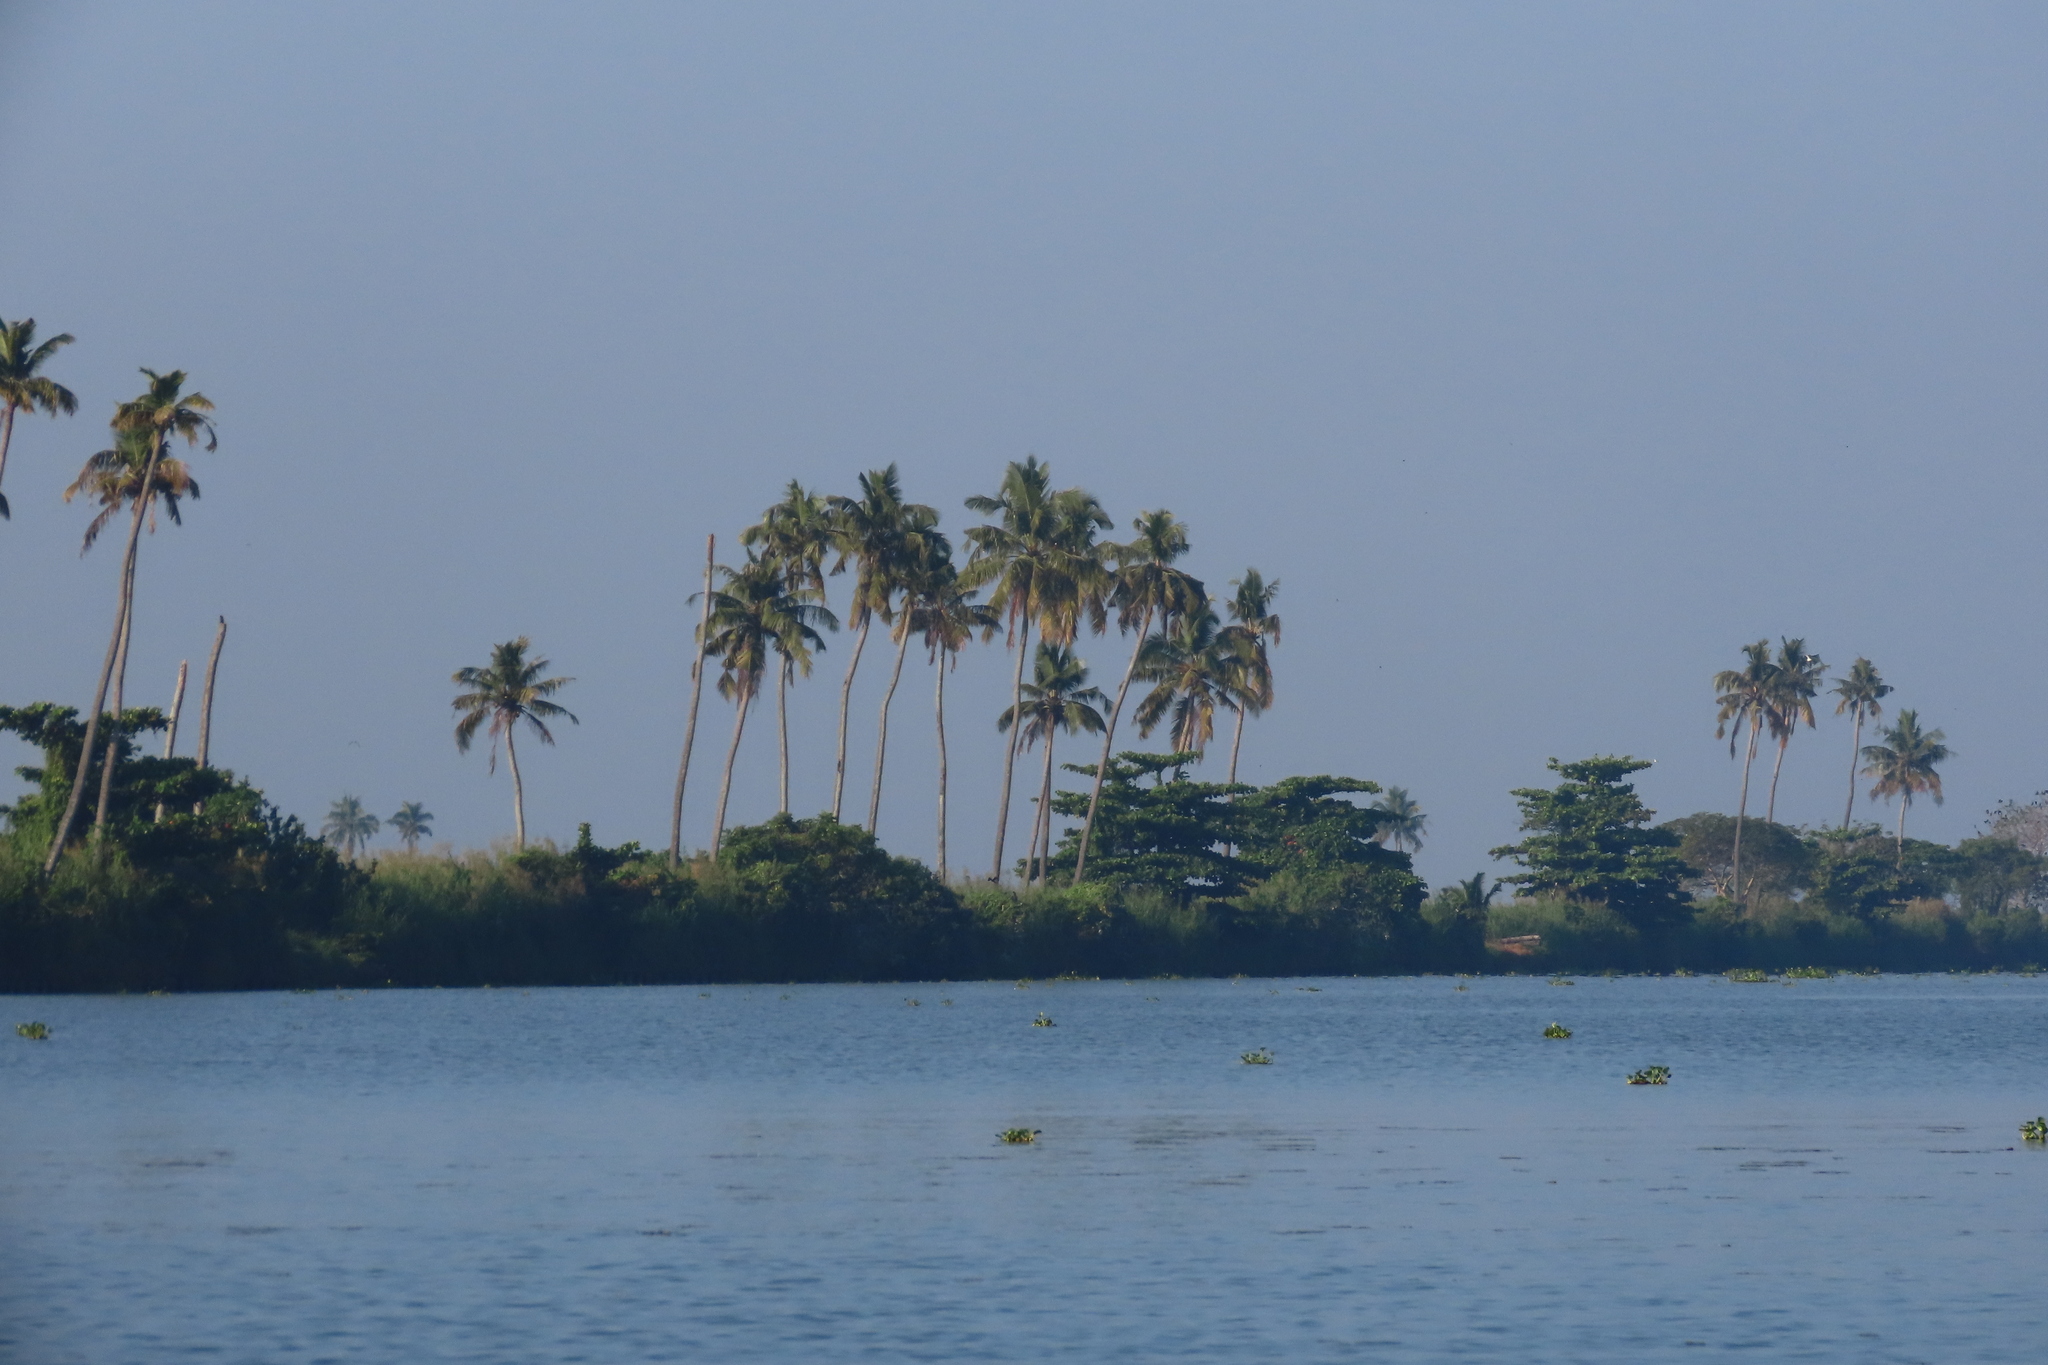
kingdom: Plantae
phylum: Tracheophyta
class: Liliopsida
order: Arecales
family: Arecaceae
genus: Cocos
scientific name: Cocos nucifera
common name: Coconut palm
